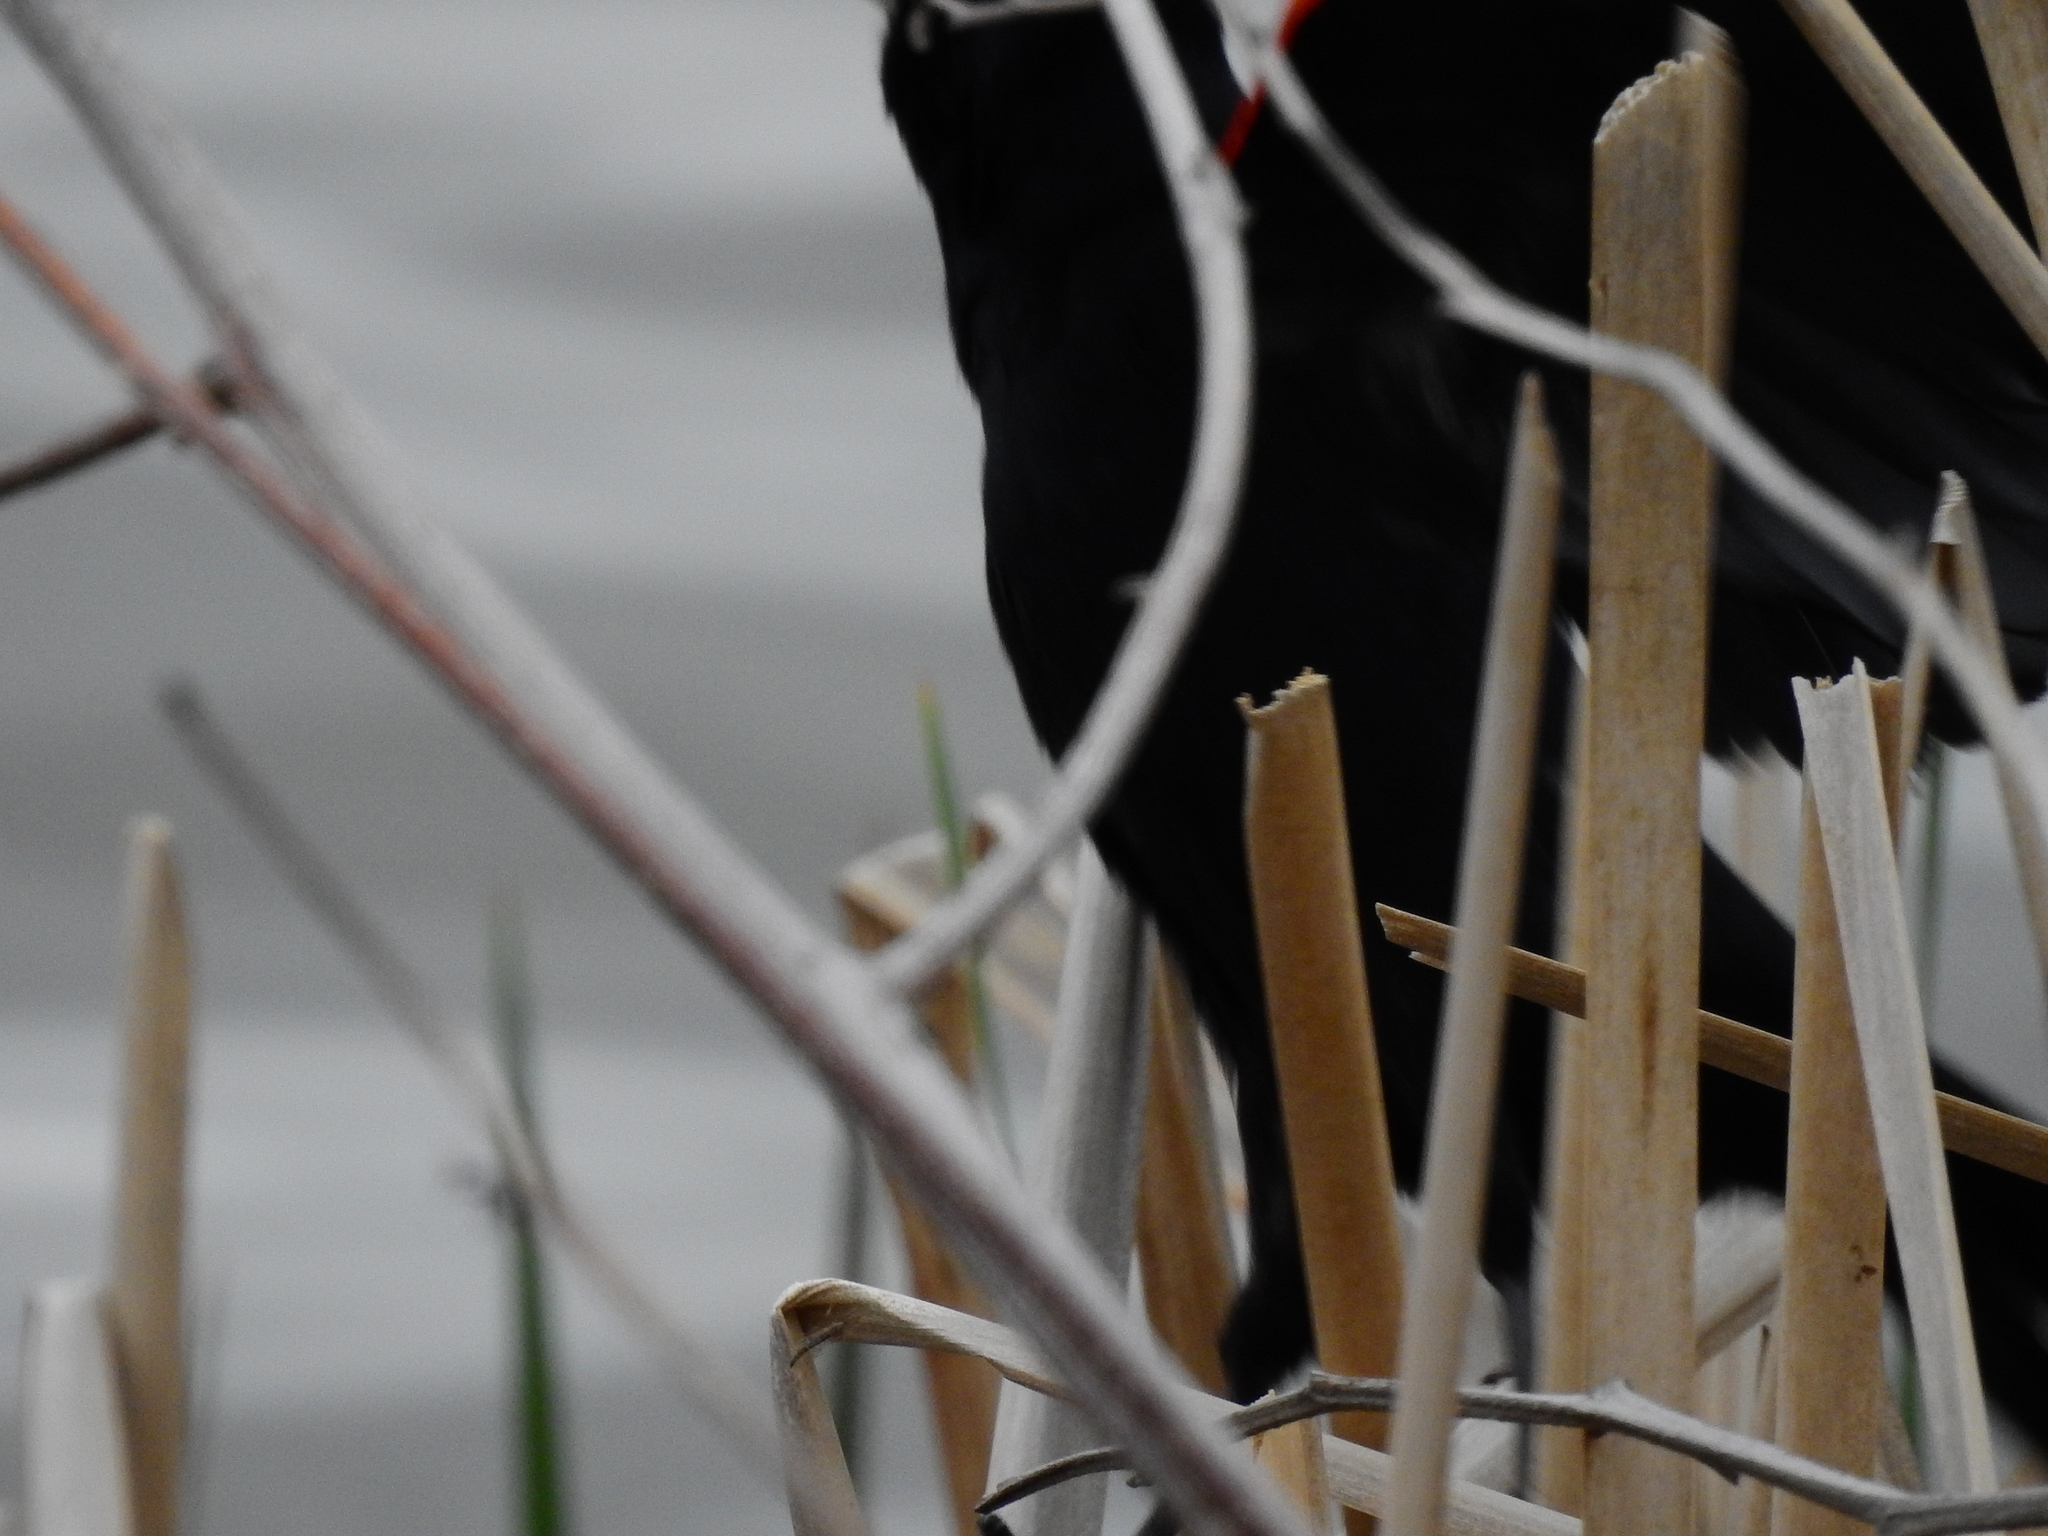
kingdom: Animalia
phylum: Chordata
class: Aves
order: Passeriformes
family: Icteridae
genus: Agelaius
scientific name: Agelaius phoeniceus
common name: Red-winged blackbird
